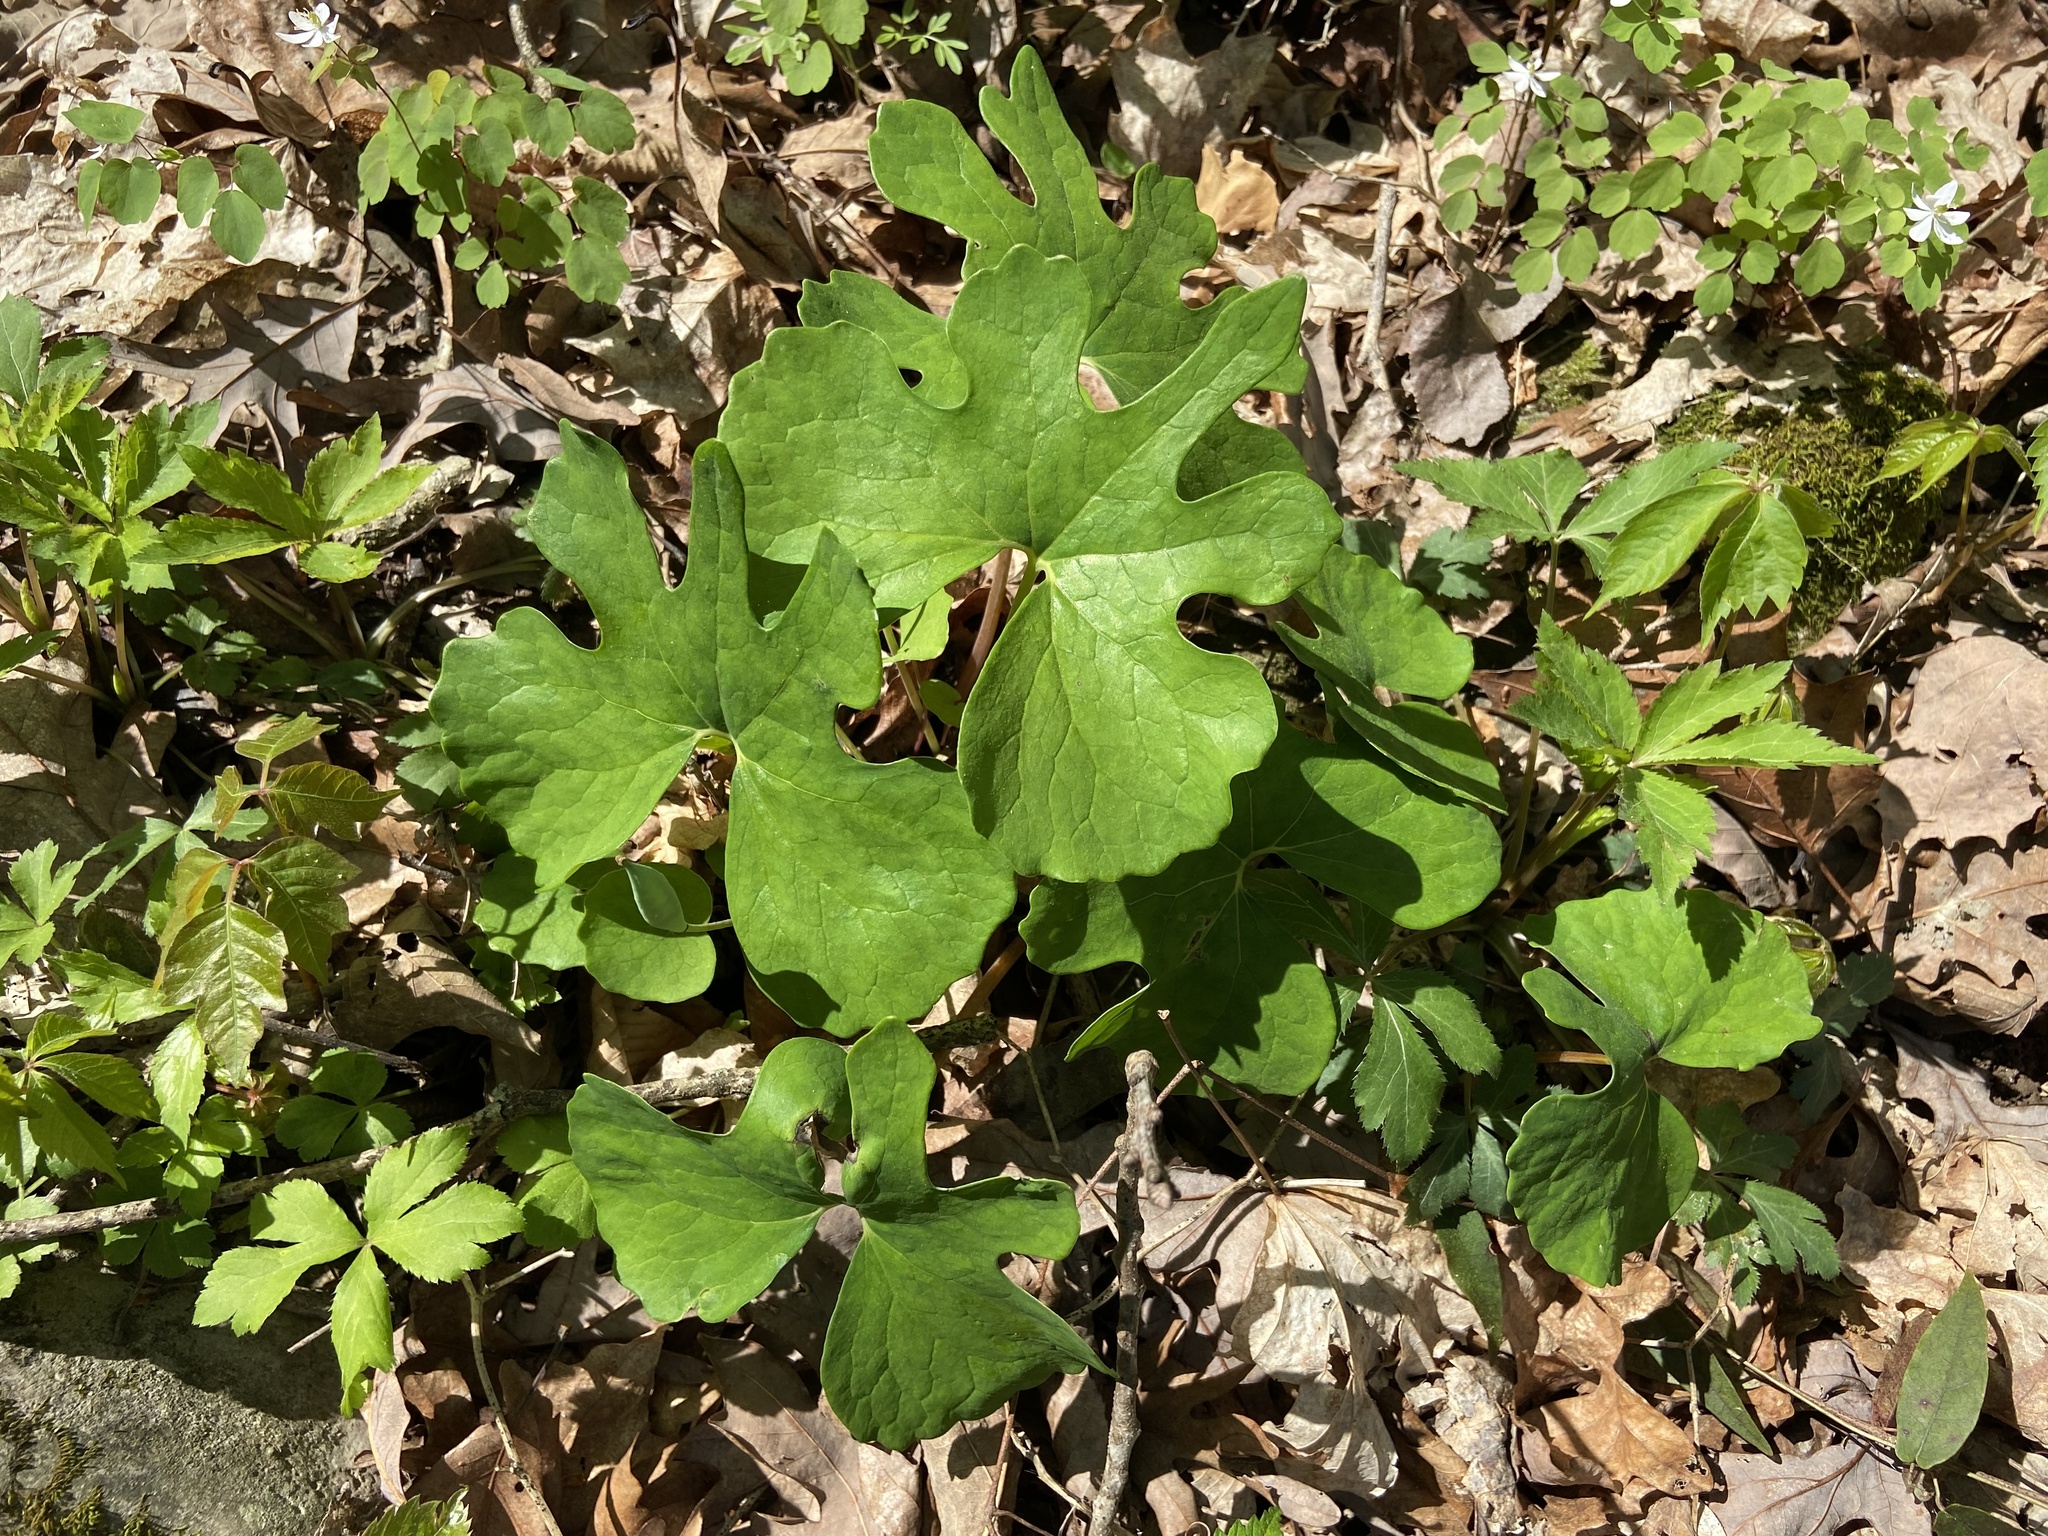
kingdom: Plantae
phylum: Tracheophyta
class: Magnoliopsida
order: Ranunculales
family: Papaveraceae
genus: Sanguinaria
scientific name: Sanguinaria canadensis
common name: Bloodroot
